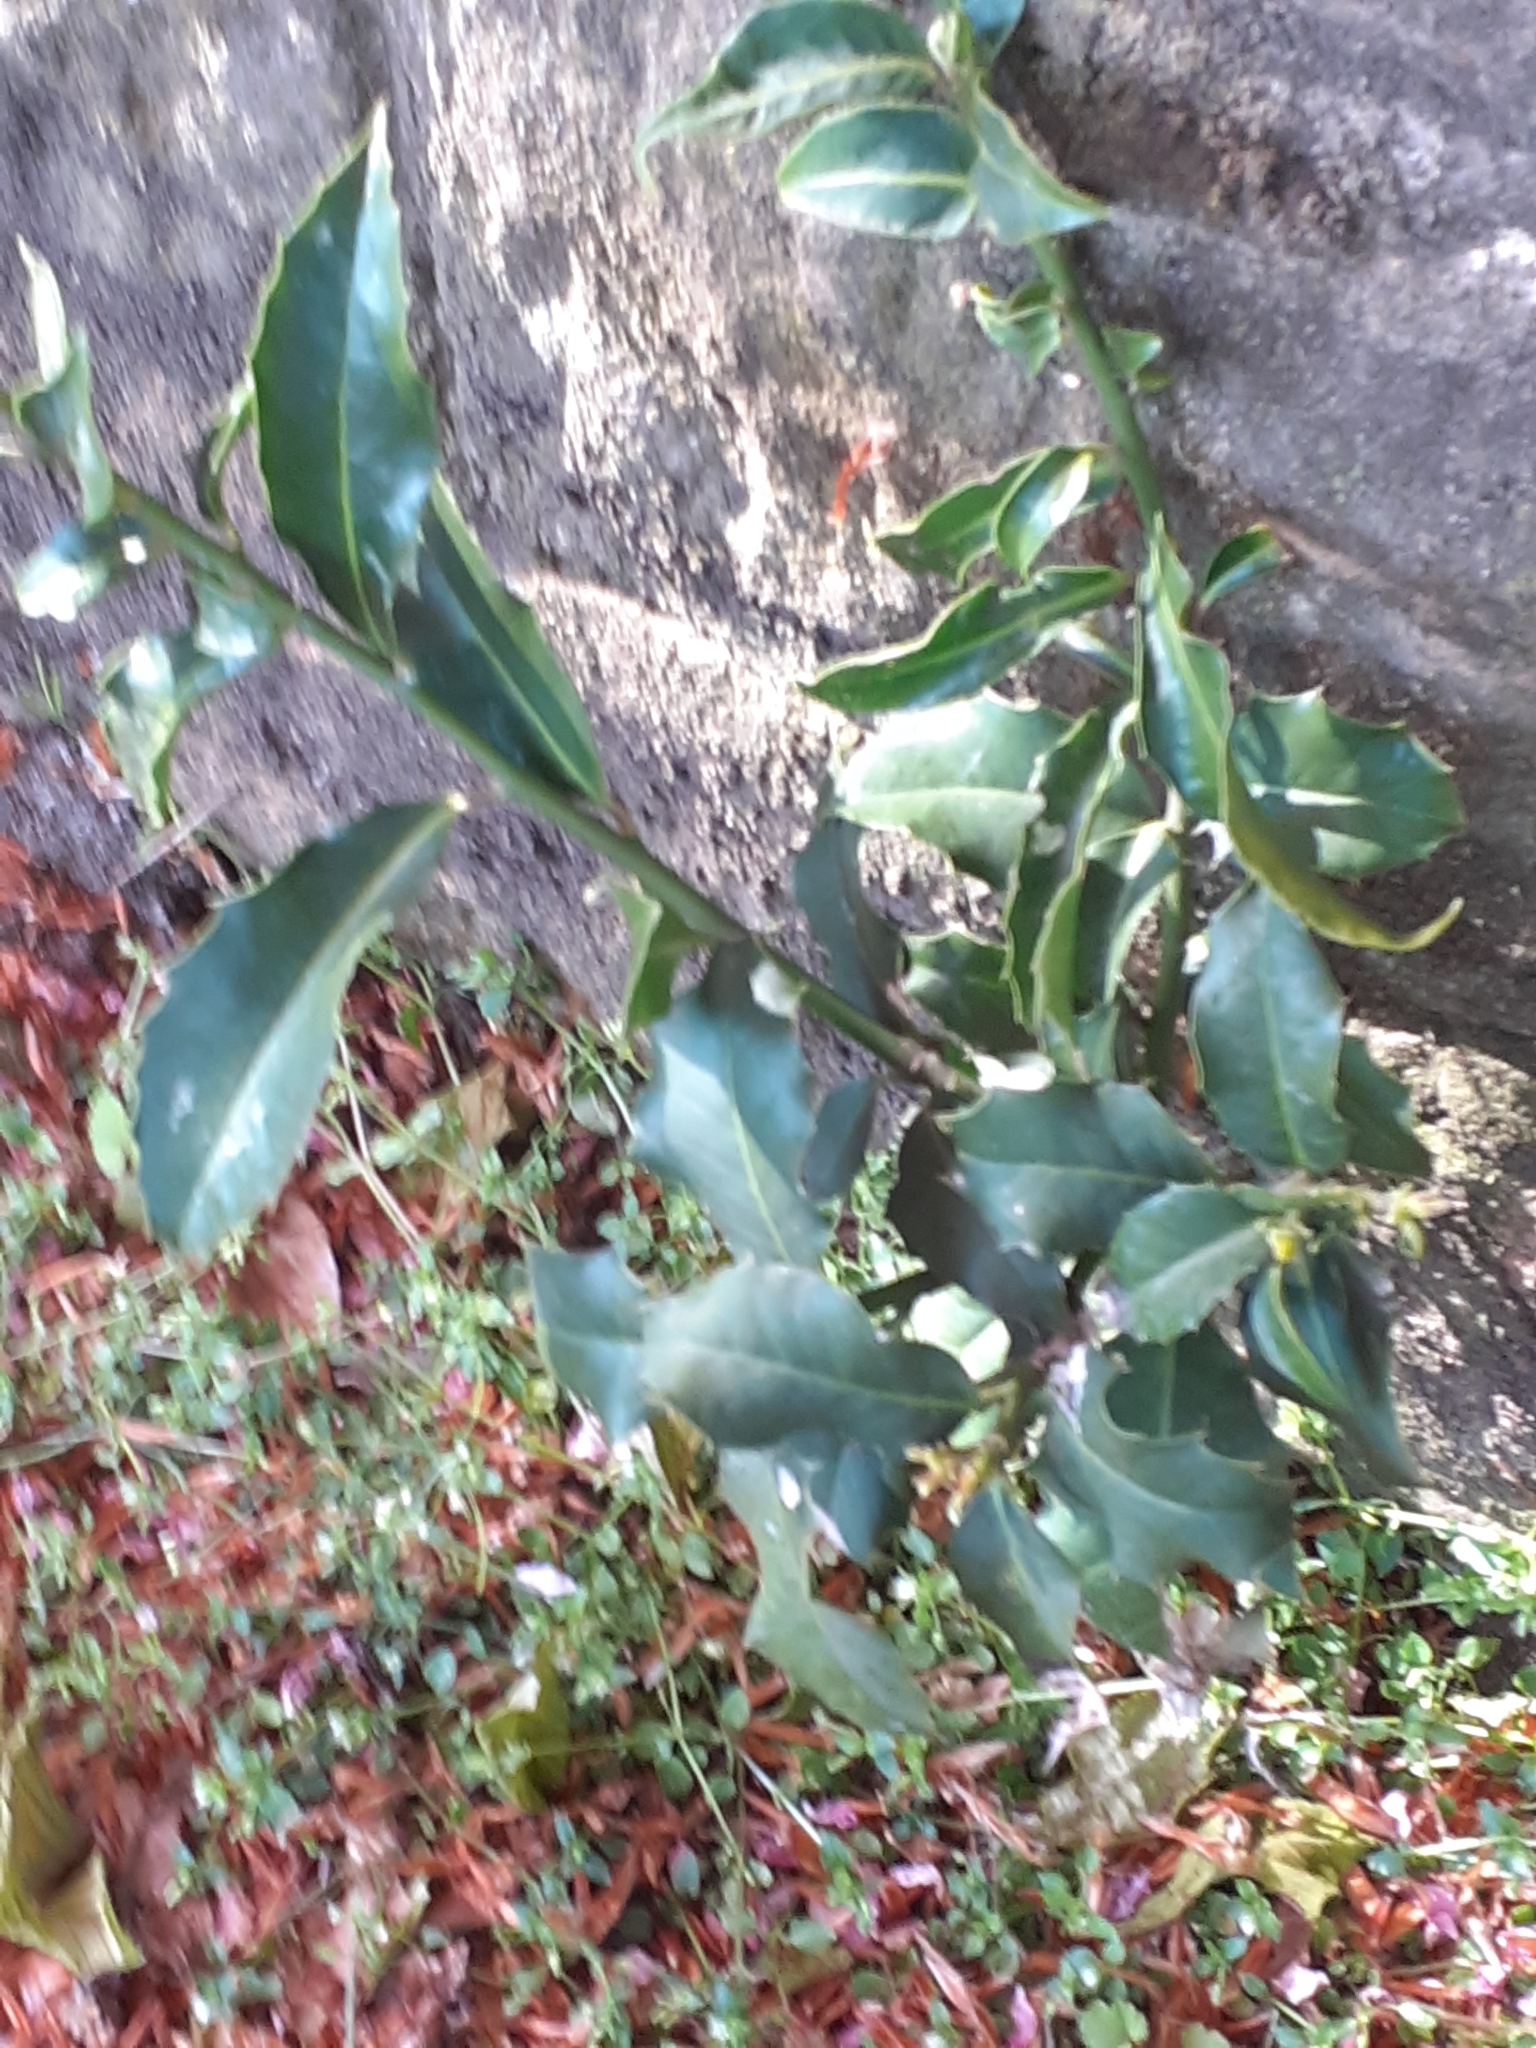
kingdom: Plantae
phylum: Tracheophyta
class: Magnoliopsida
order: Aquifoliales
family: Aquifoliaceae
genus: Ilex
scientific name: Ilex aquifolium
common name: English holly
